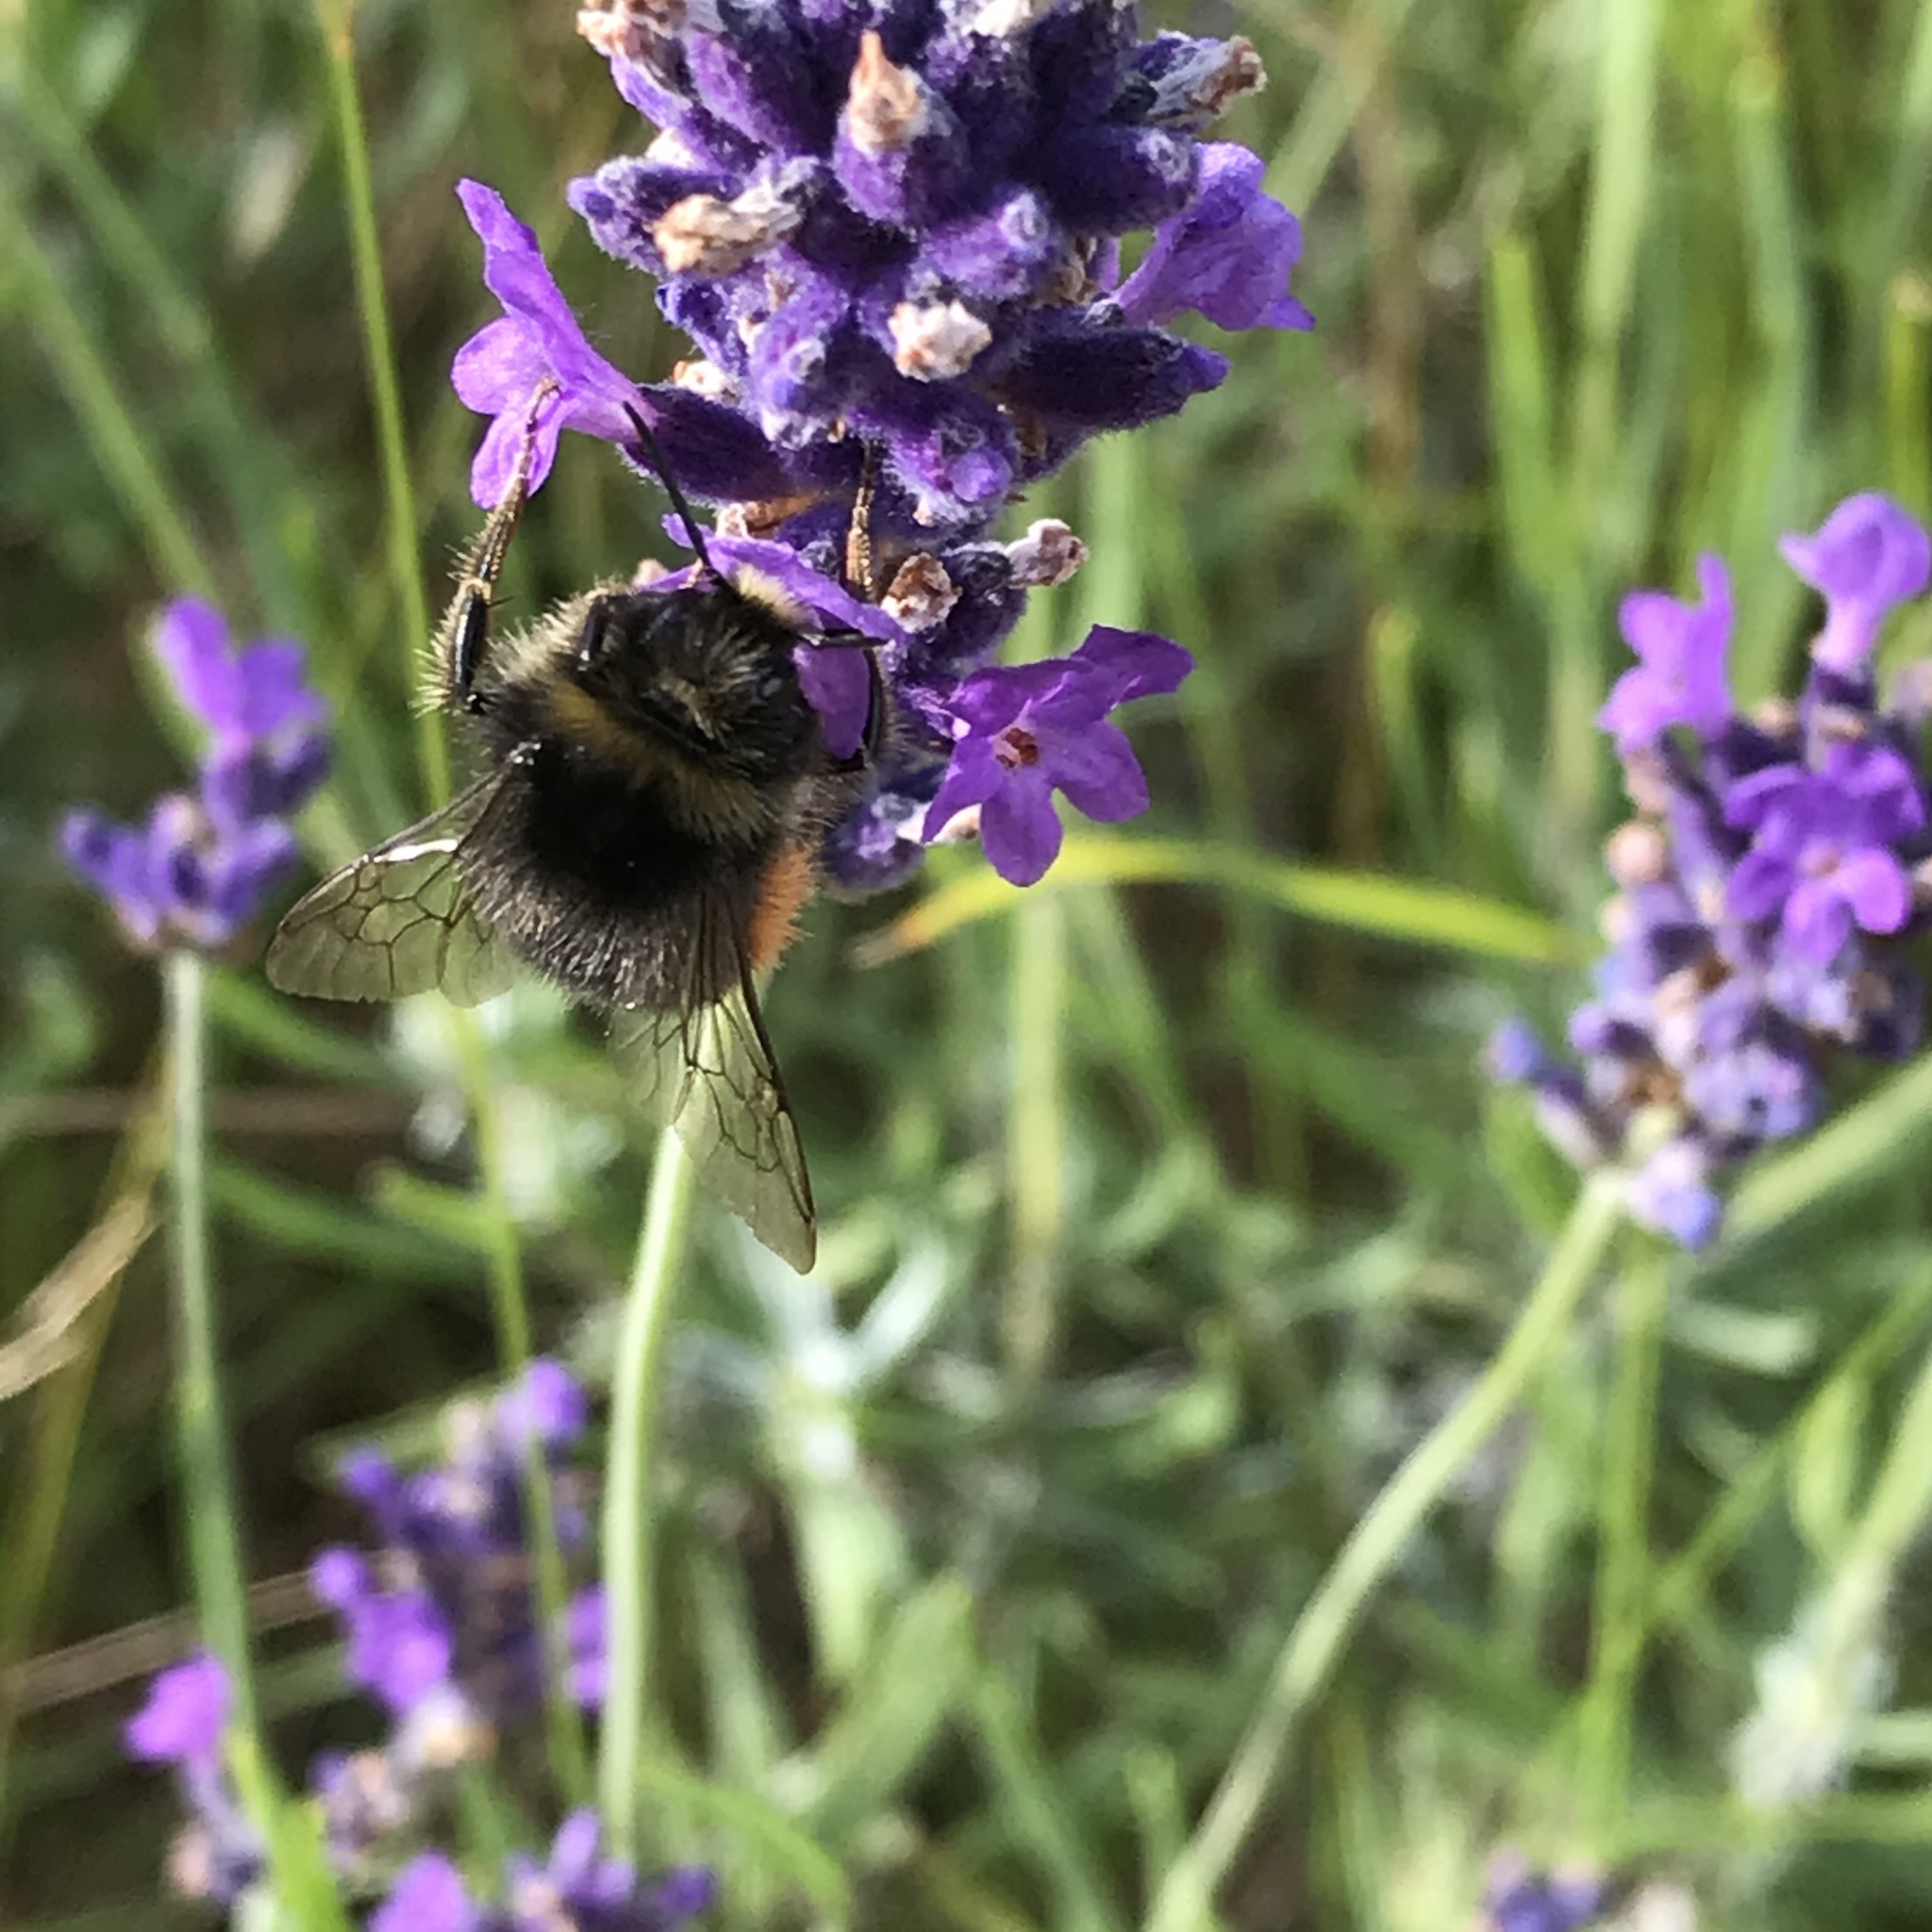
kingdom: Animalia
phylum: Arthropoda
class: Insecta
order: Hymenoptera
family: Apidae
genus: Bombus
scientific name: Bombus lapidarius
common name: Large red-tailed humble-bee
